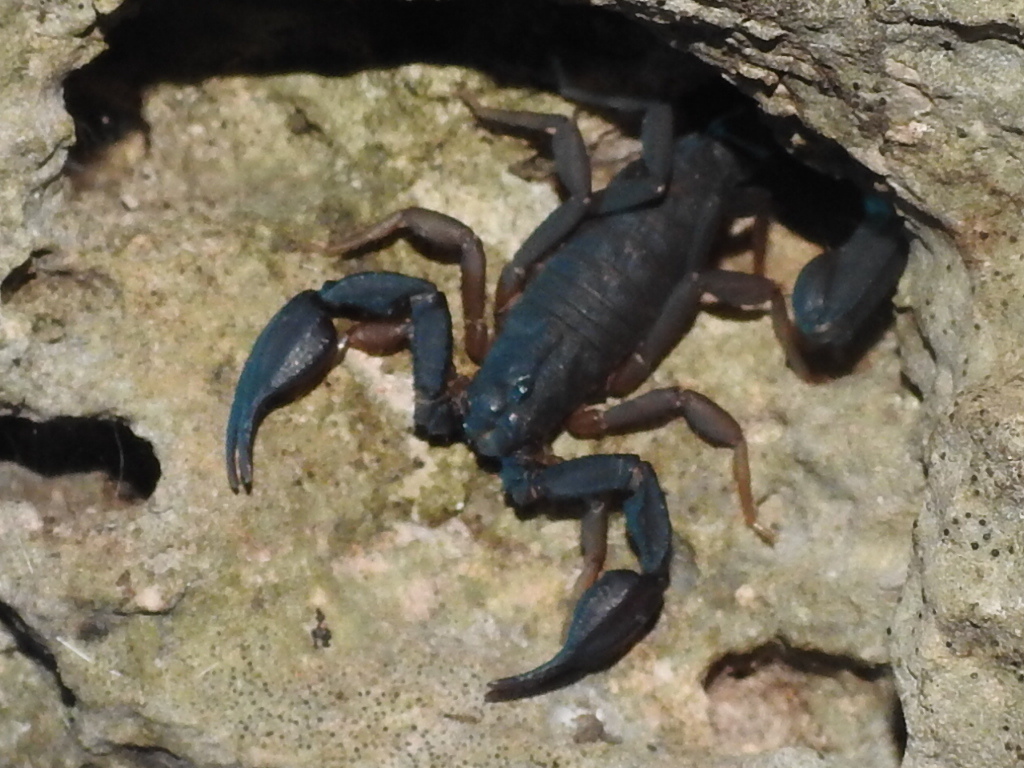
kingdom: Animalia
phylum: Arthropoda
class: Arachnida
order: Scorpiones
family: Vaejovidae
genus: Pseudouroctonus
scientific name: Pseudouroctonus reddelli
